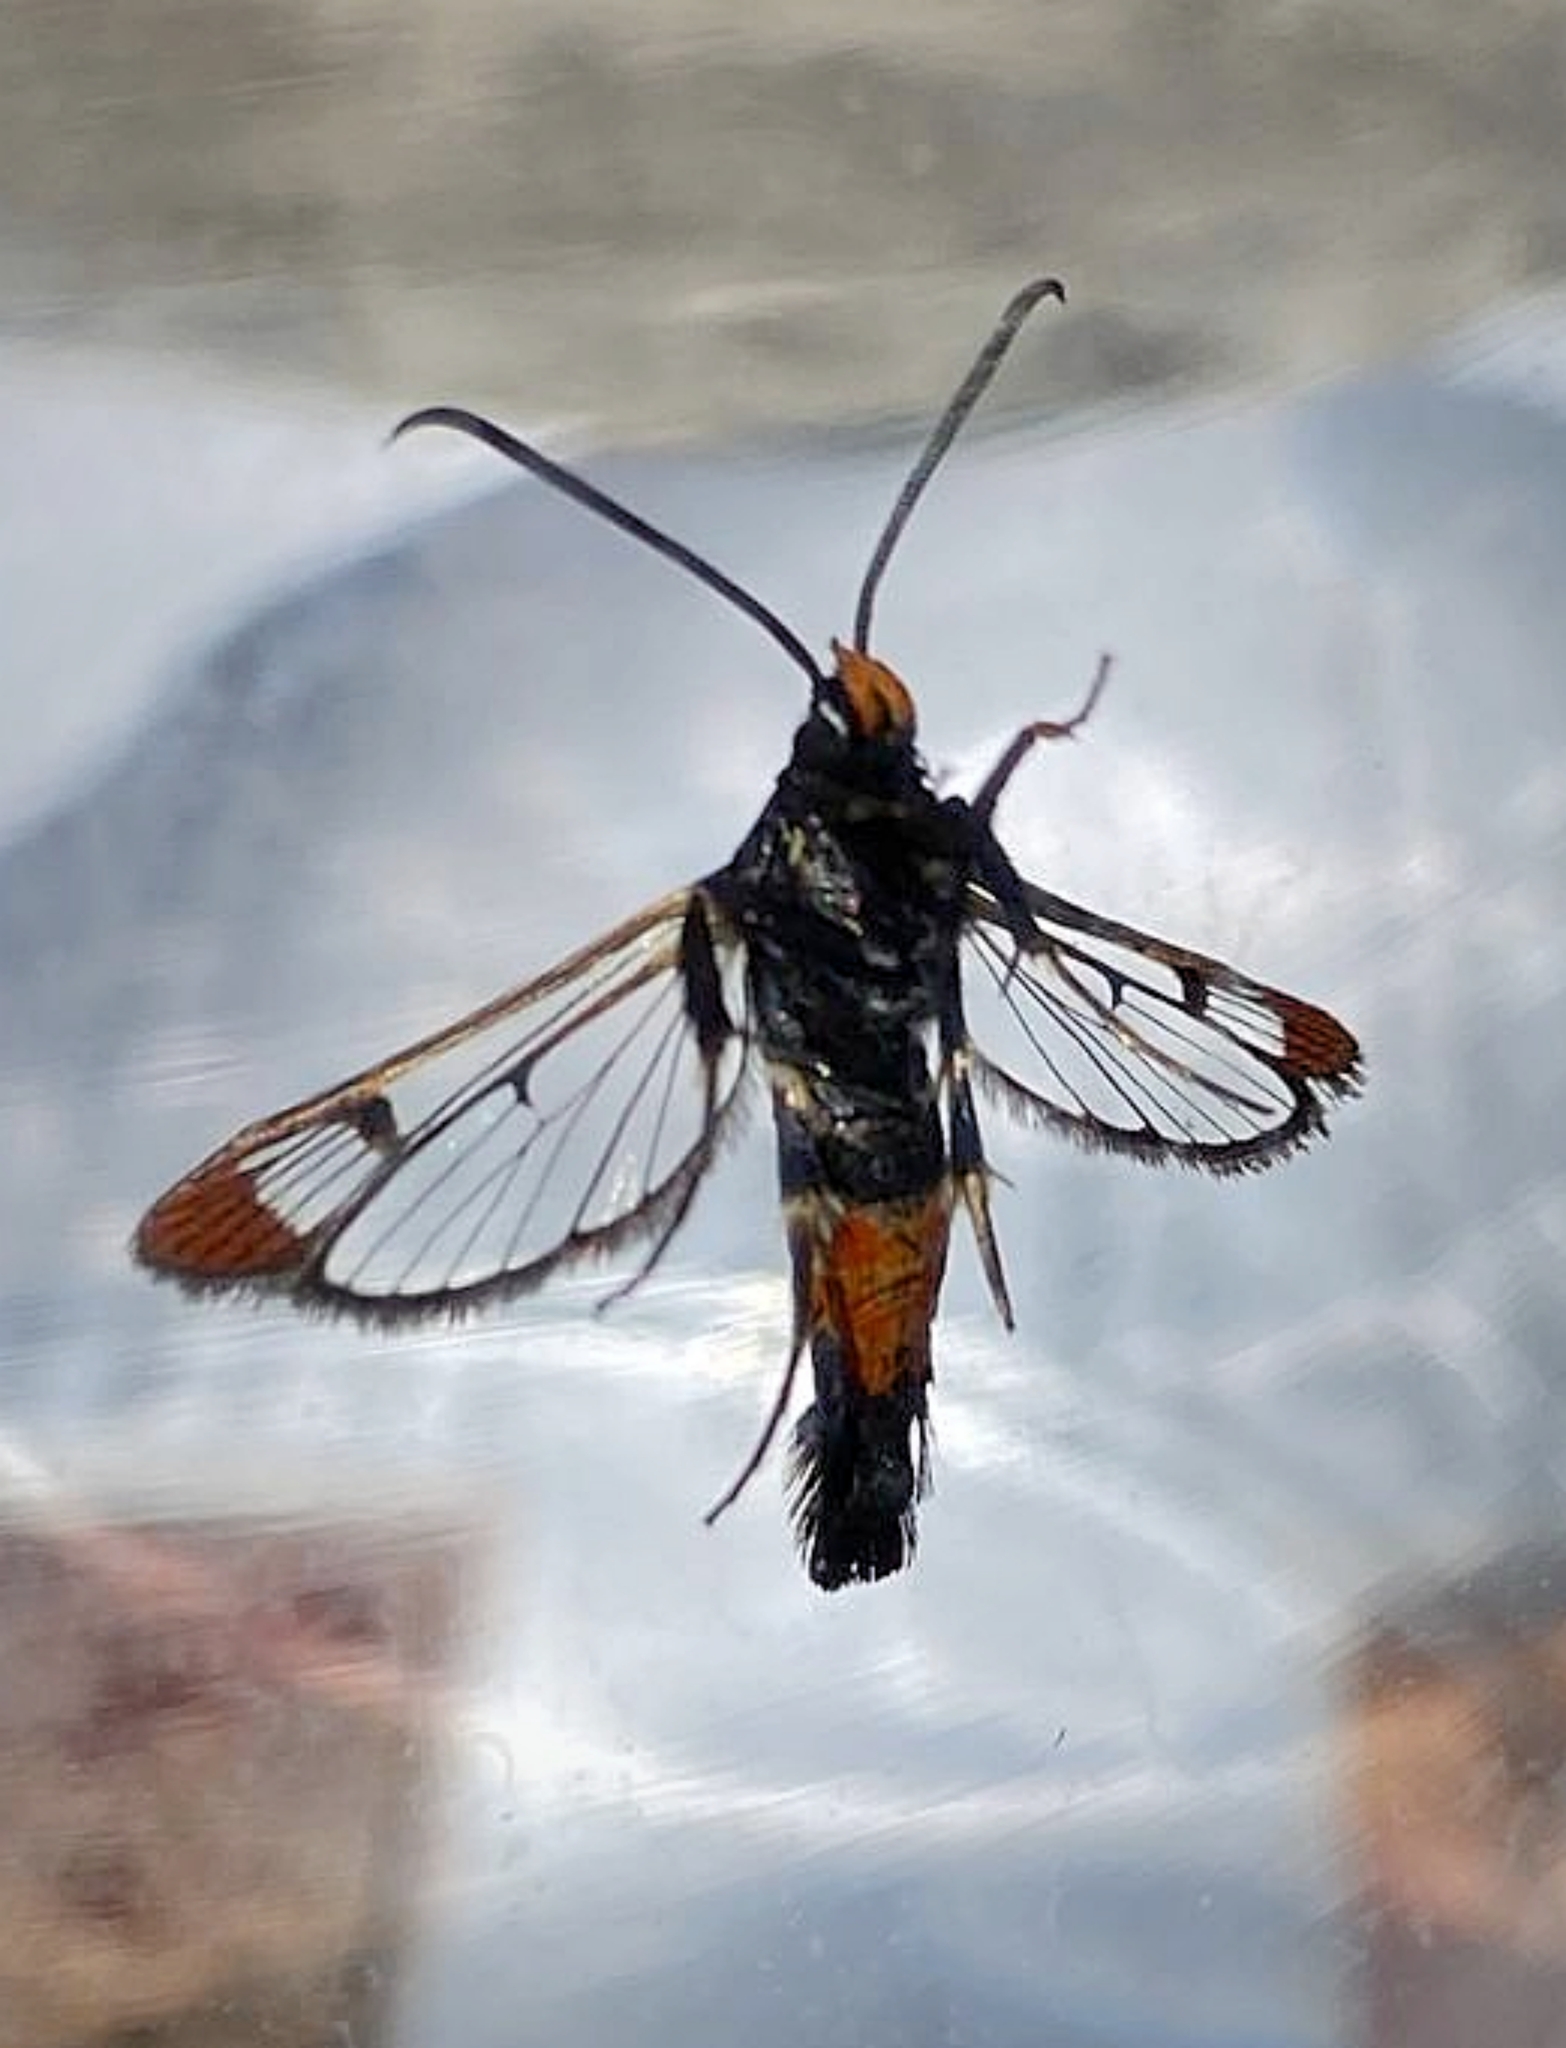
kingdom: Animalia
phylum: Arthropoda
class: Insecta
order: Lepidoptera
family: Sesiidae
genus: Synanthedon
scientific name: Synanthedon formicaeformis
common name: Red-tipped clearwing
